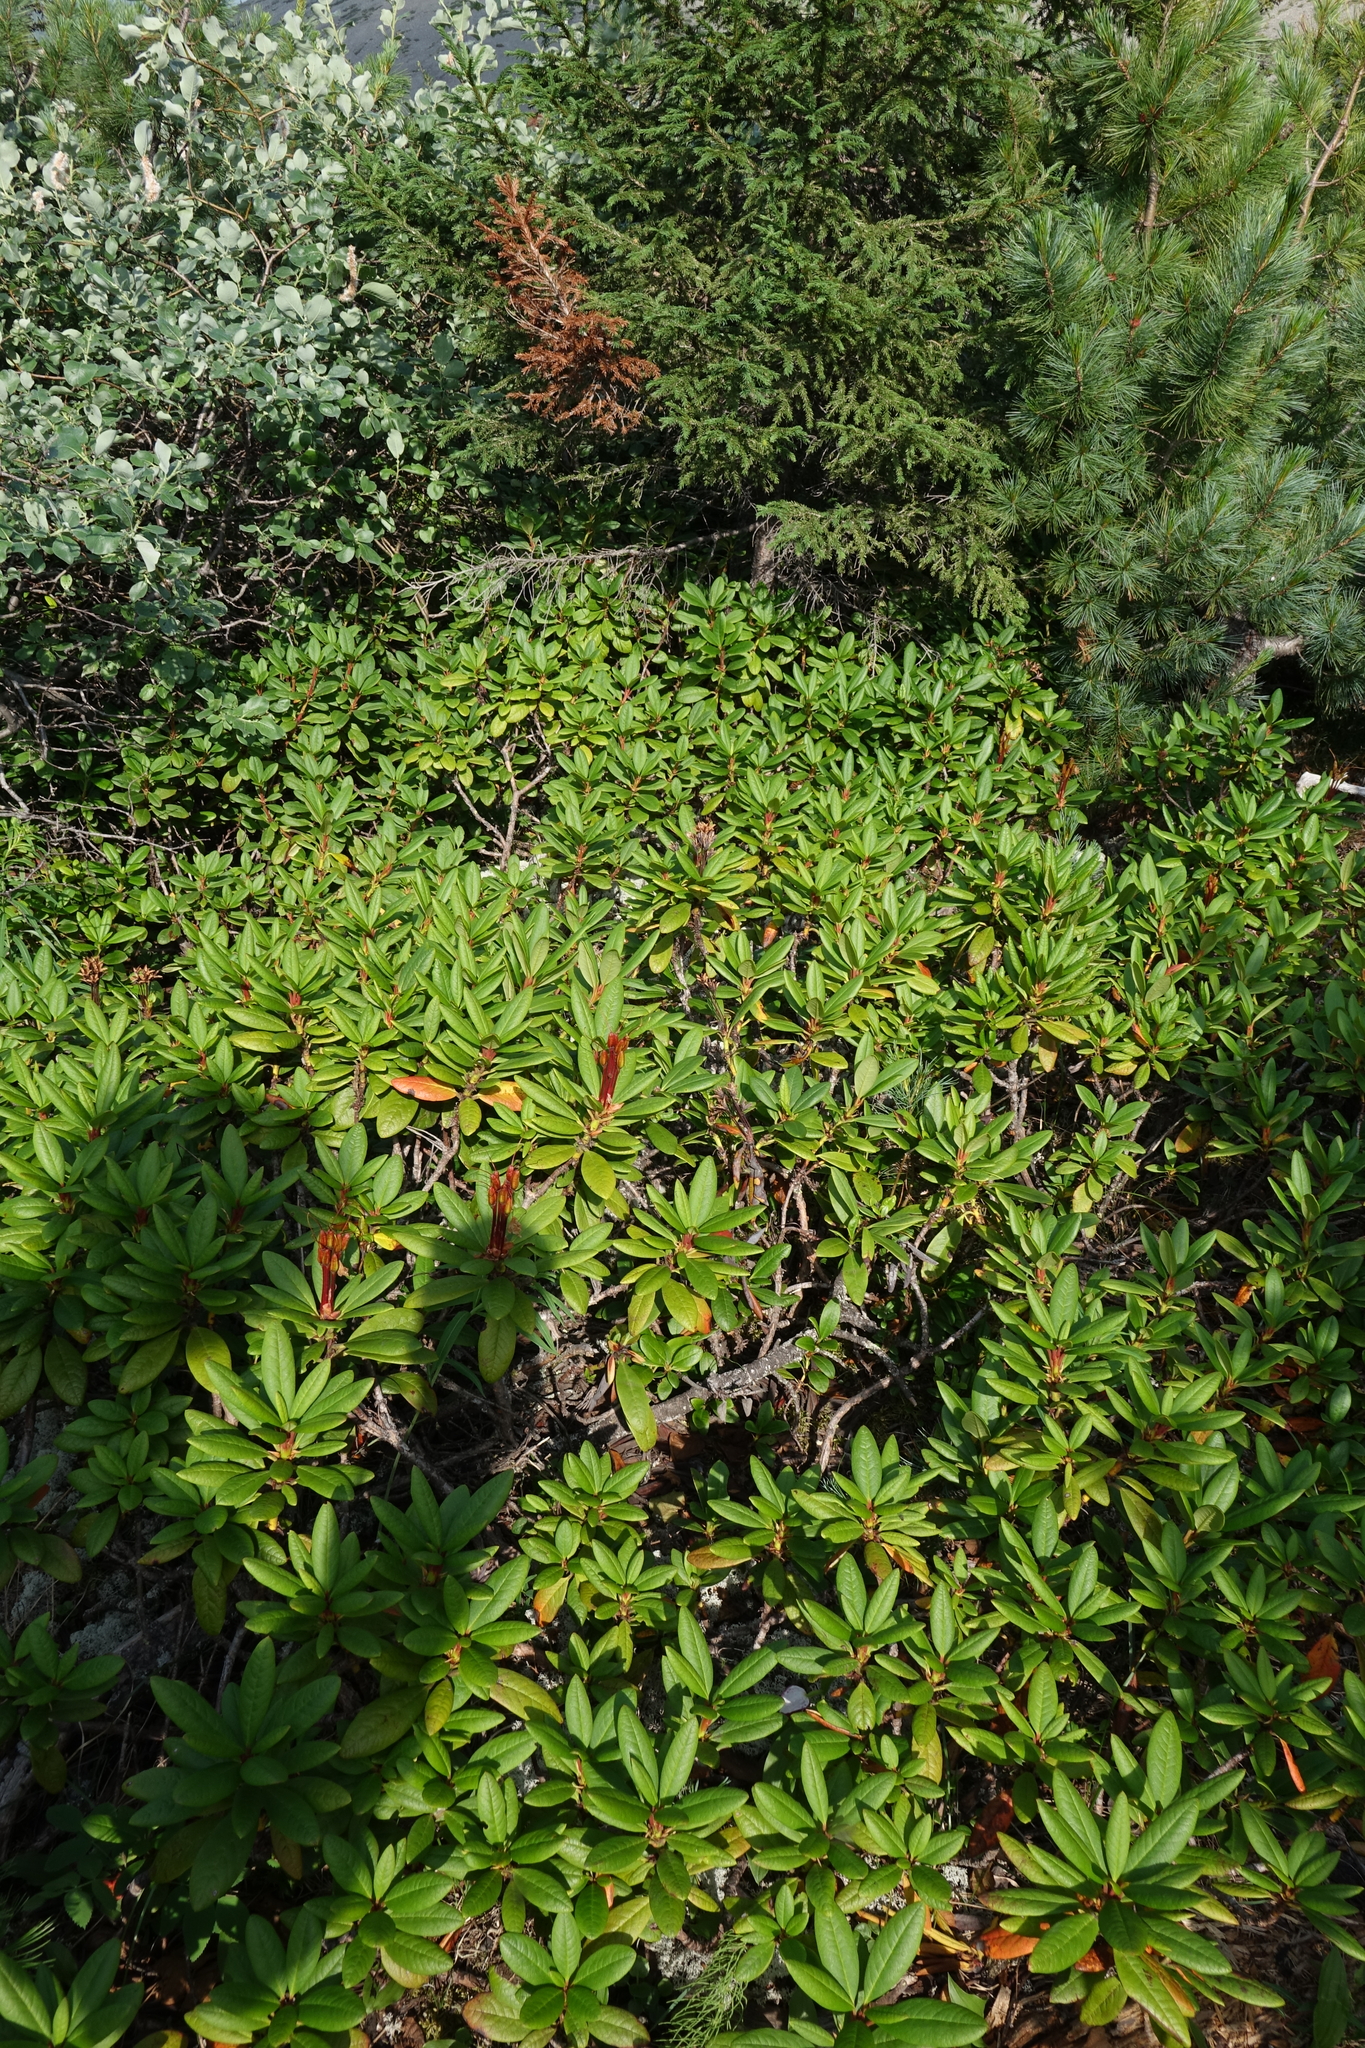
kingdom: Plantae
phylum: Tracheophyta
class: Magnoliopsida
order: Ericales
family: Ericaceae
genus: Rhododendron
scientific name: Rhododendron aureum
